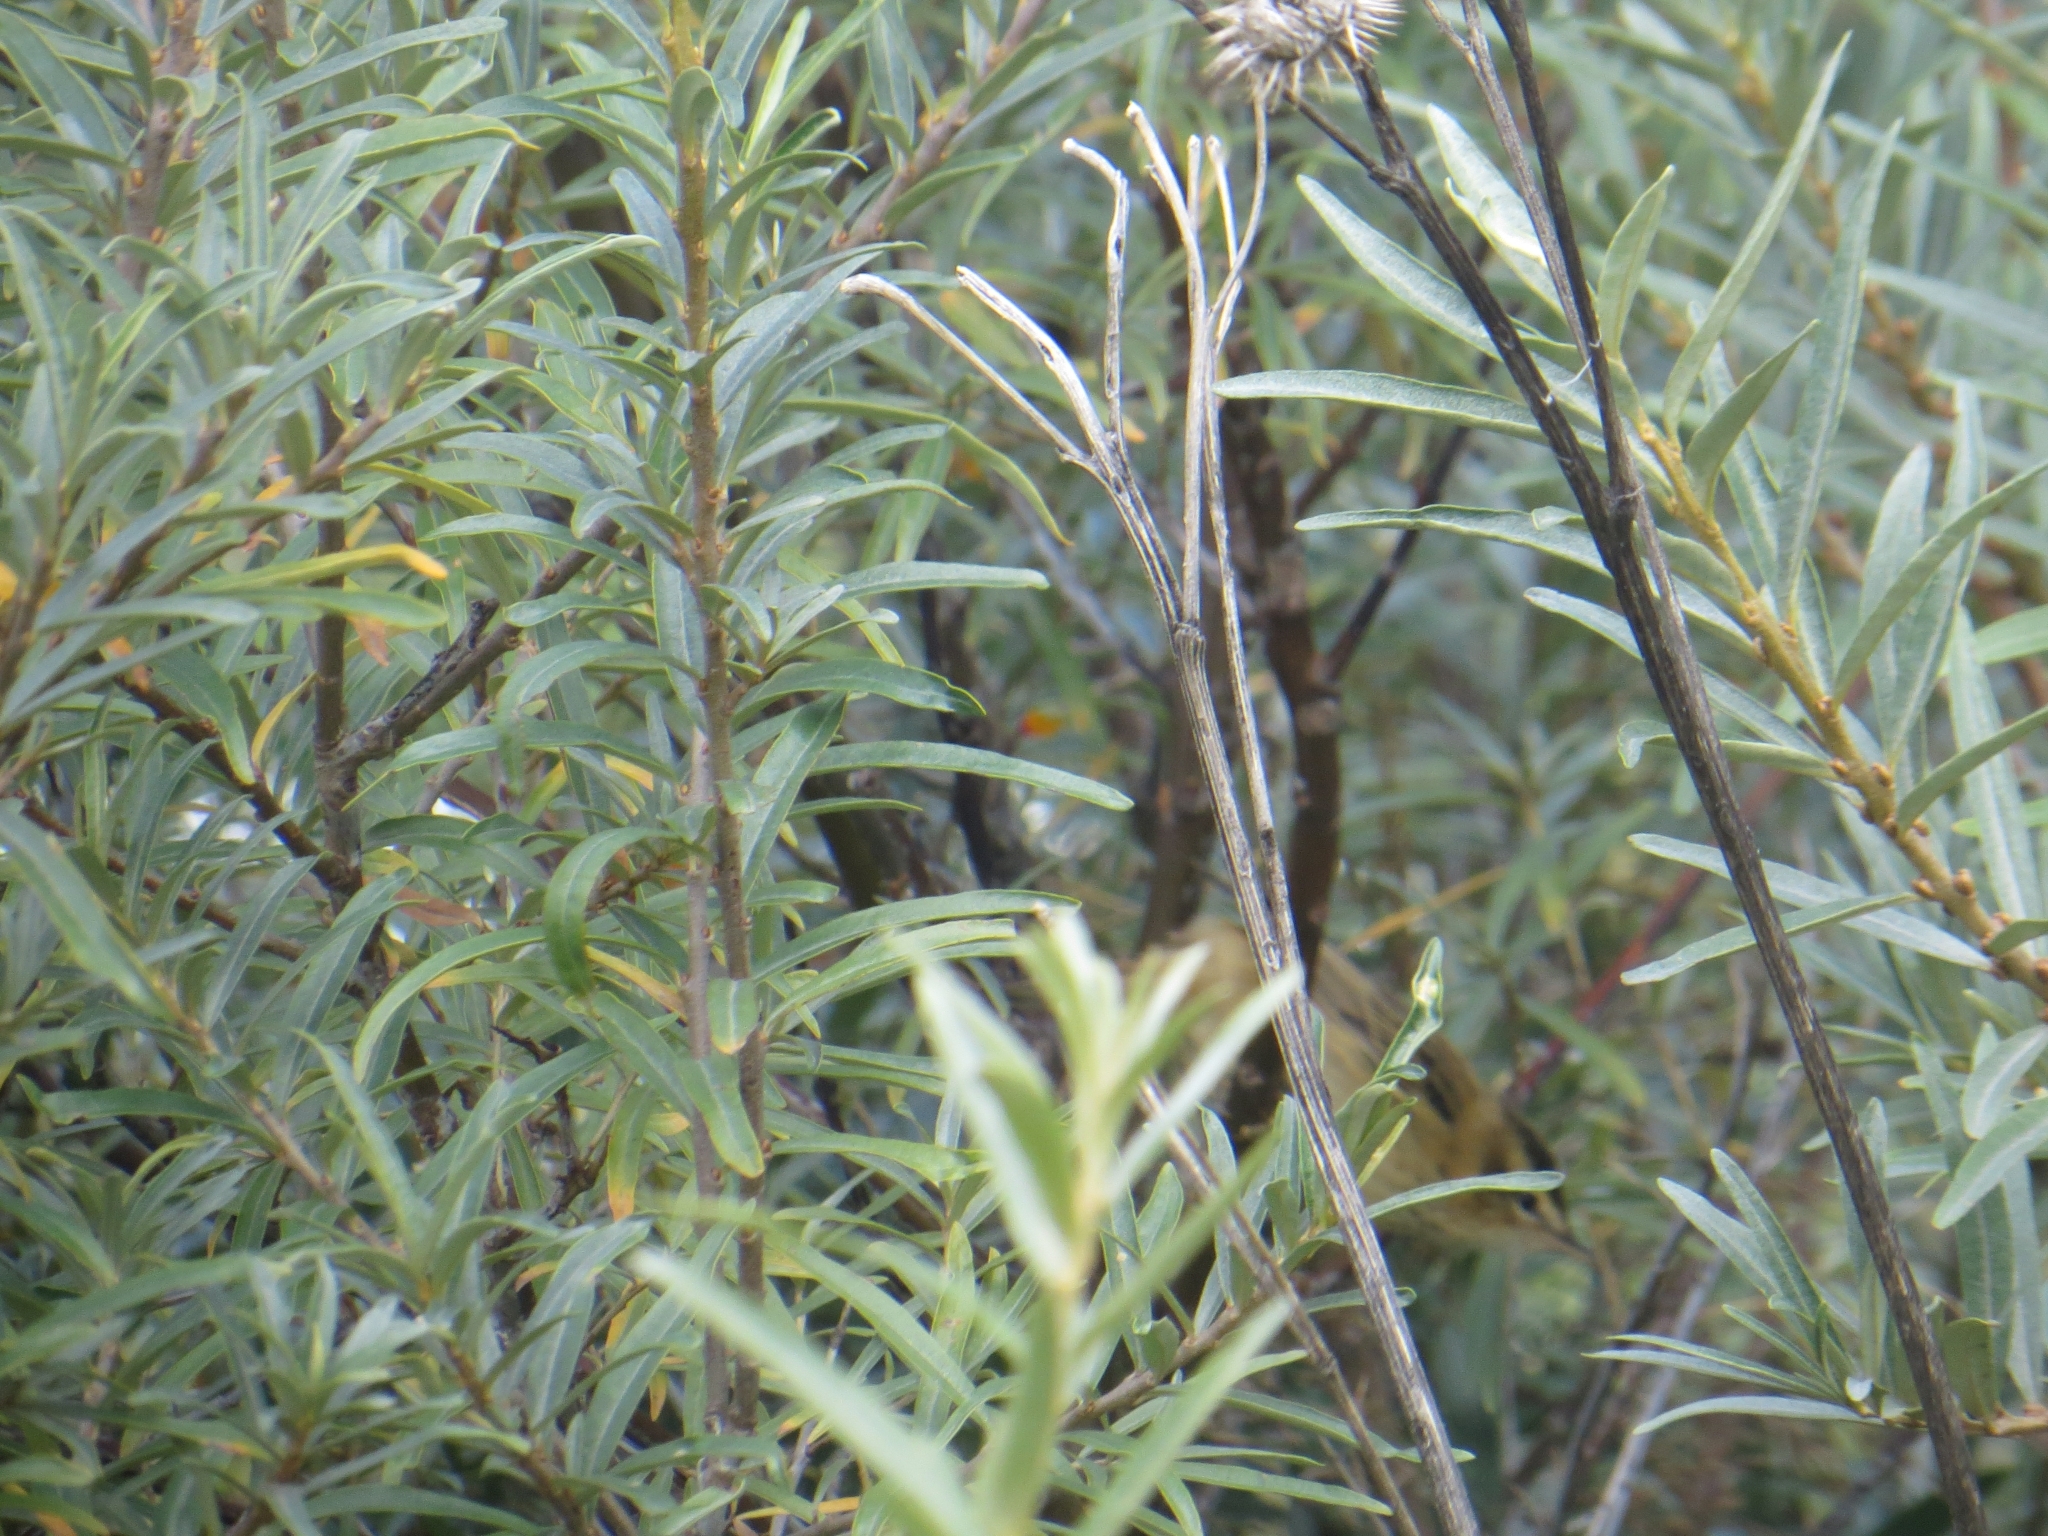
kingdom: Animalia
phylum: Chordata
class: Aves
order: Passeriformes
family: Acrocephalidae
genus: Acrocephalus
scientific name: Acrocephalus schoenobaenus
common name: Sedge warbler
